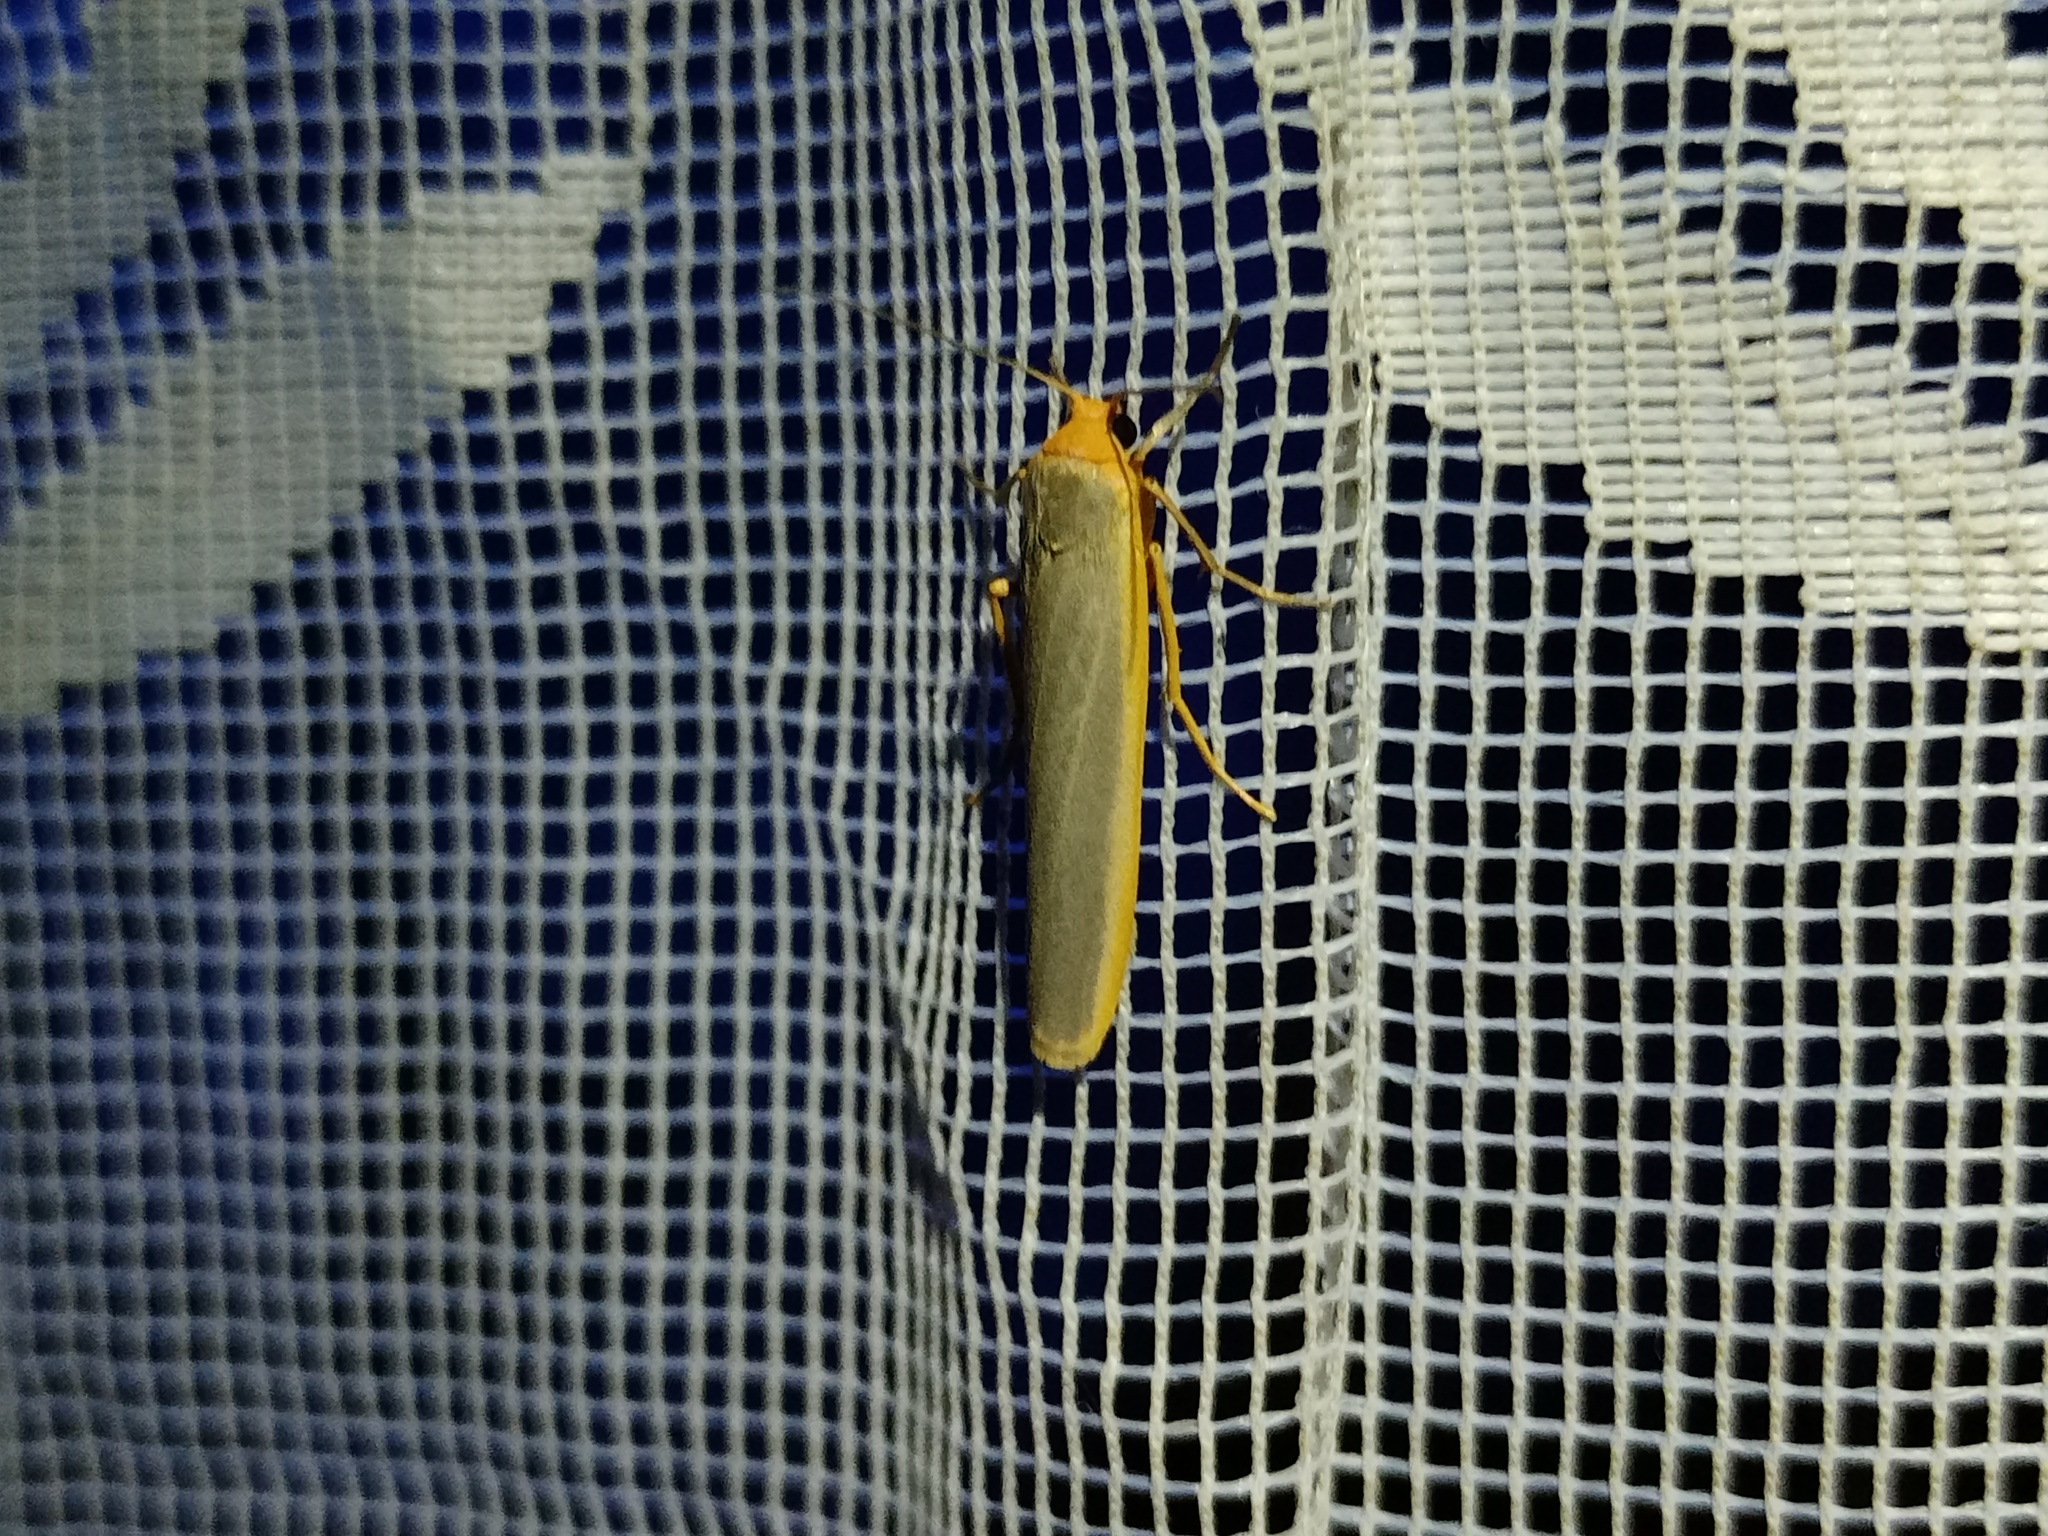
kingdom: Animalia
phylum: Arthropoda
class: Insecta
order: Lepidoptera
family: Erebidae
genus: Manulea
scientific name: Manulea complana
